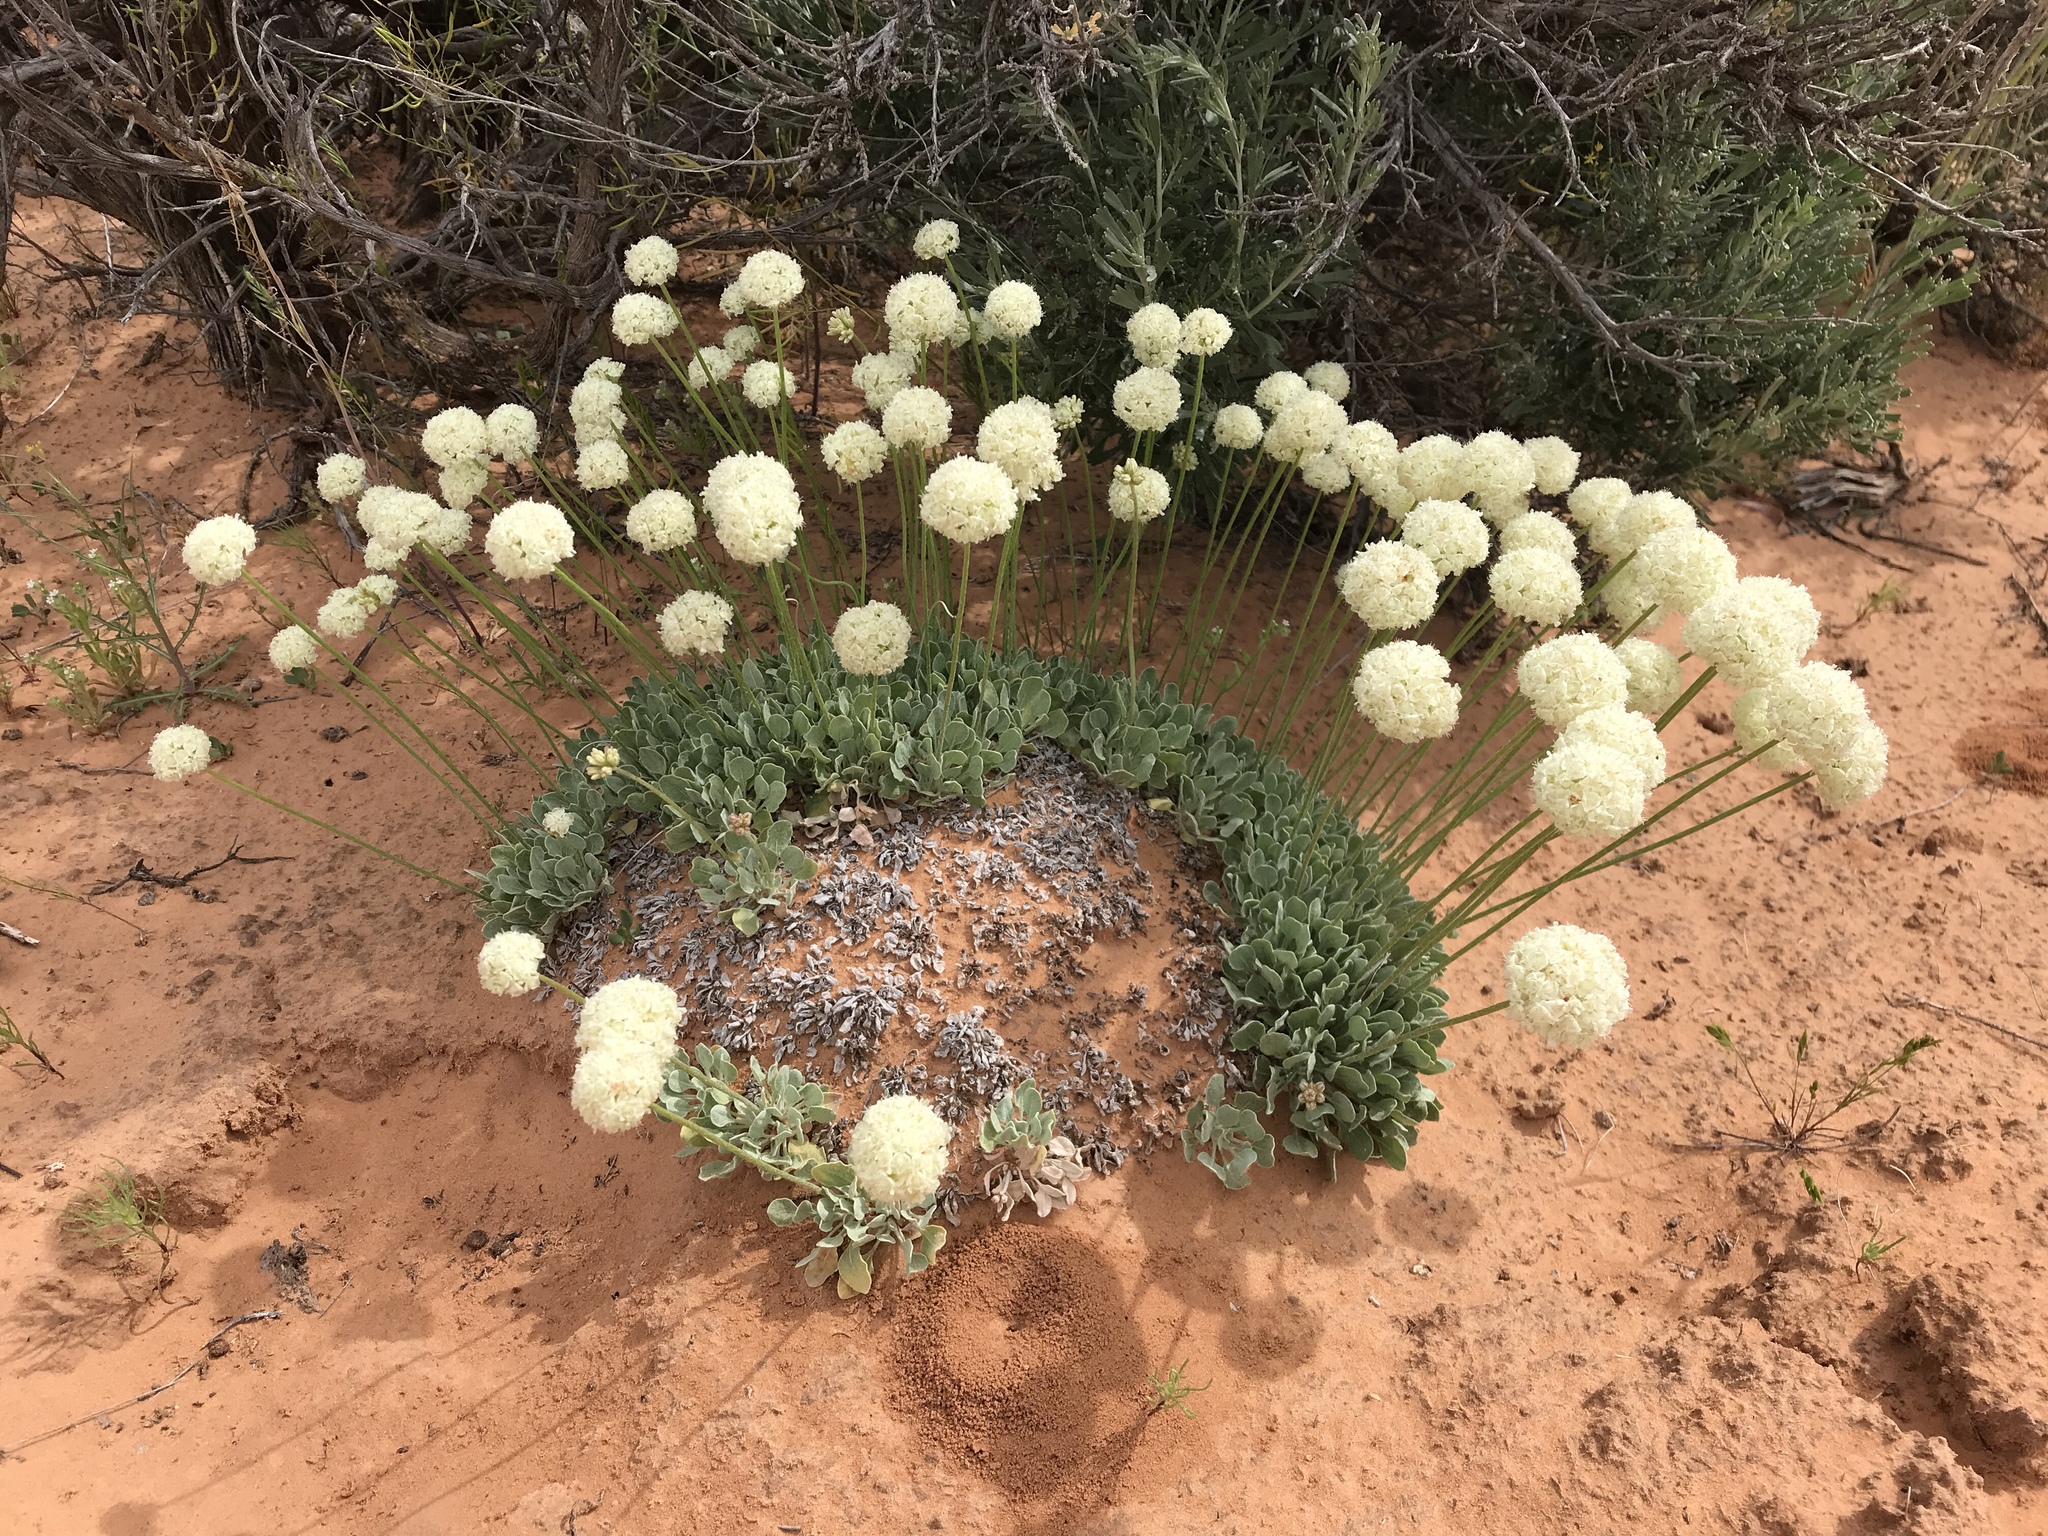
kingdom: Plantae
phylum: Tracheophyta
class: Magnoliopsida
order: Caryophyllales
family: Polygonaceae
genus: Eriogonum
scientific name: Eriogonum ovalifolium
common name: Cushion buckwheat
